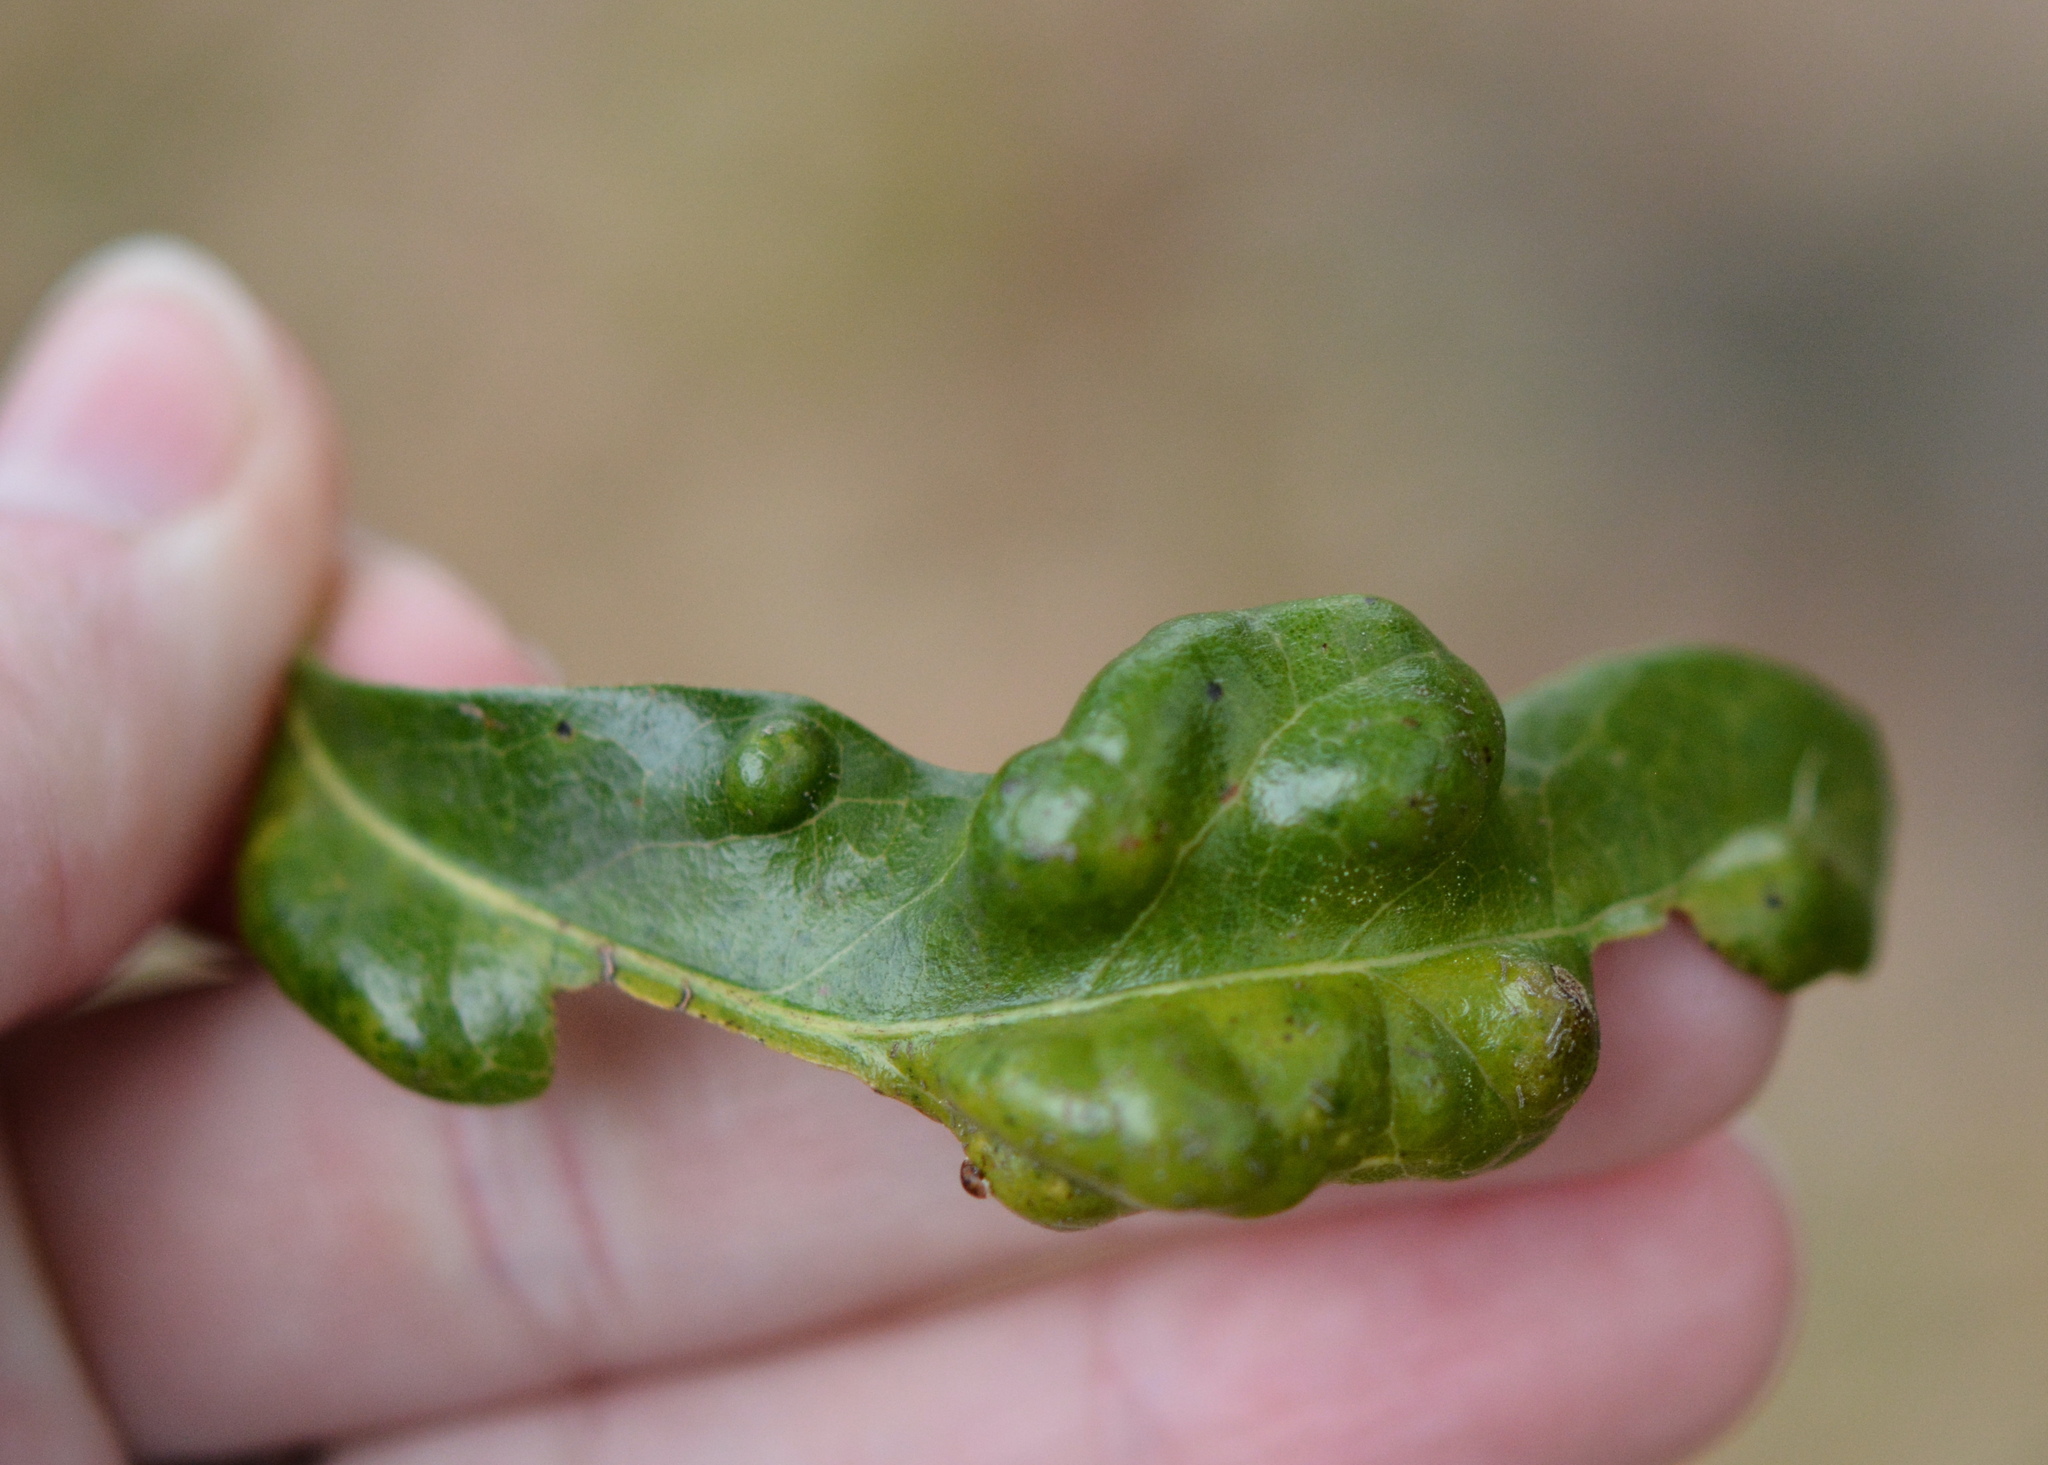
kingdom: Fungi
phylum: Ascomycota
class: Taphrinomycetes
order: Taphrinales
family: Taphrinaceae
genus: Taphrina
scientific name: Taphrina caerulescens
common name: Oak leaf blister
